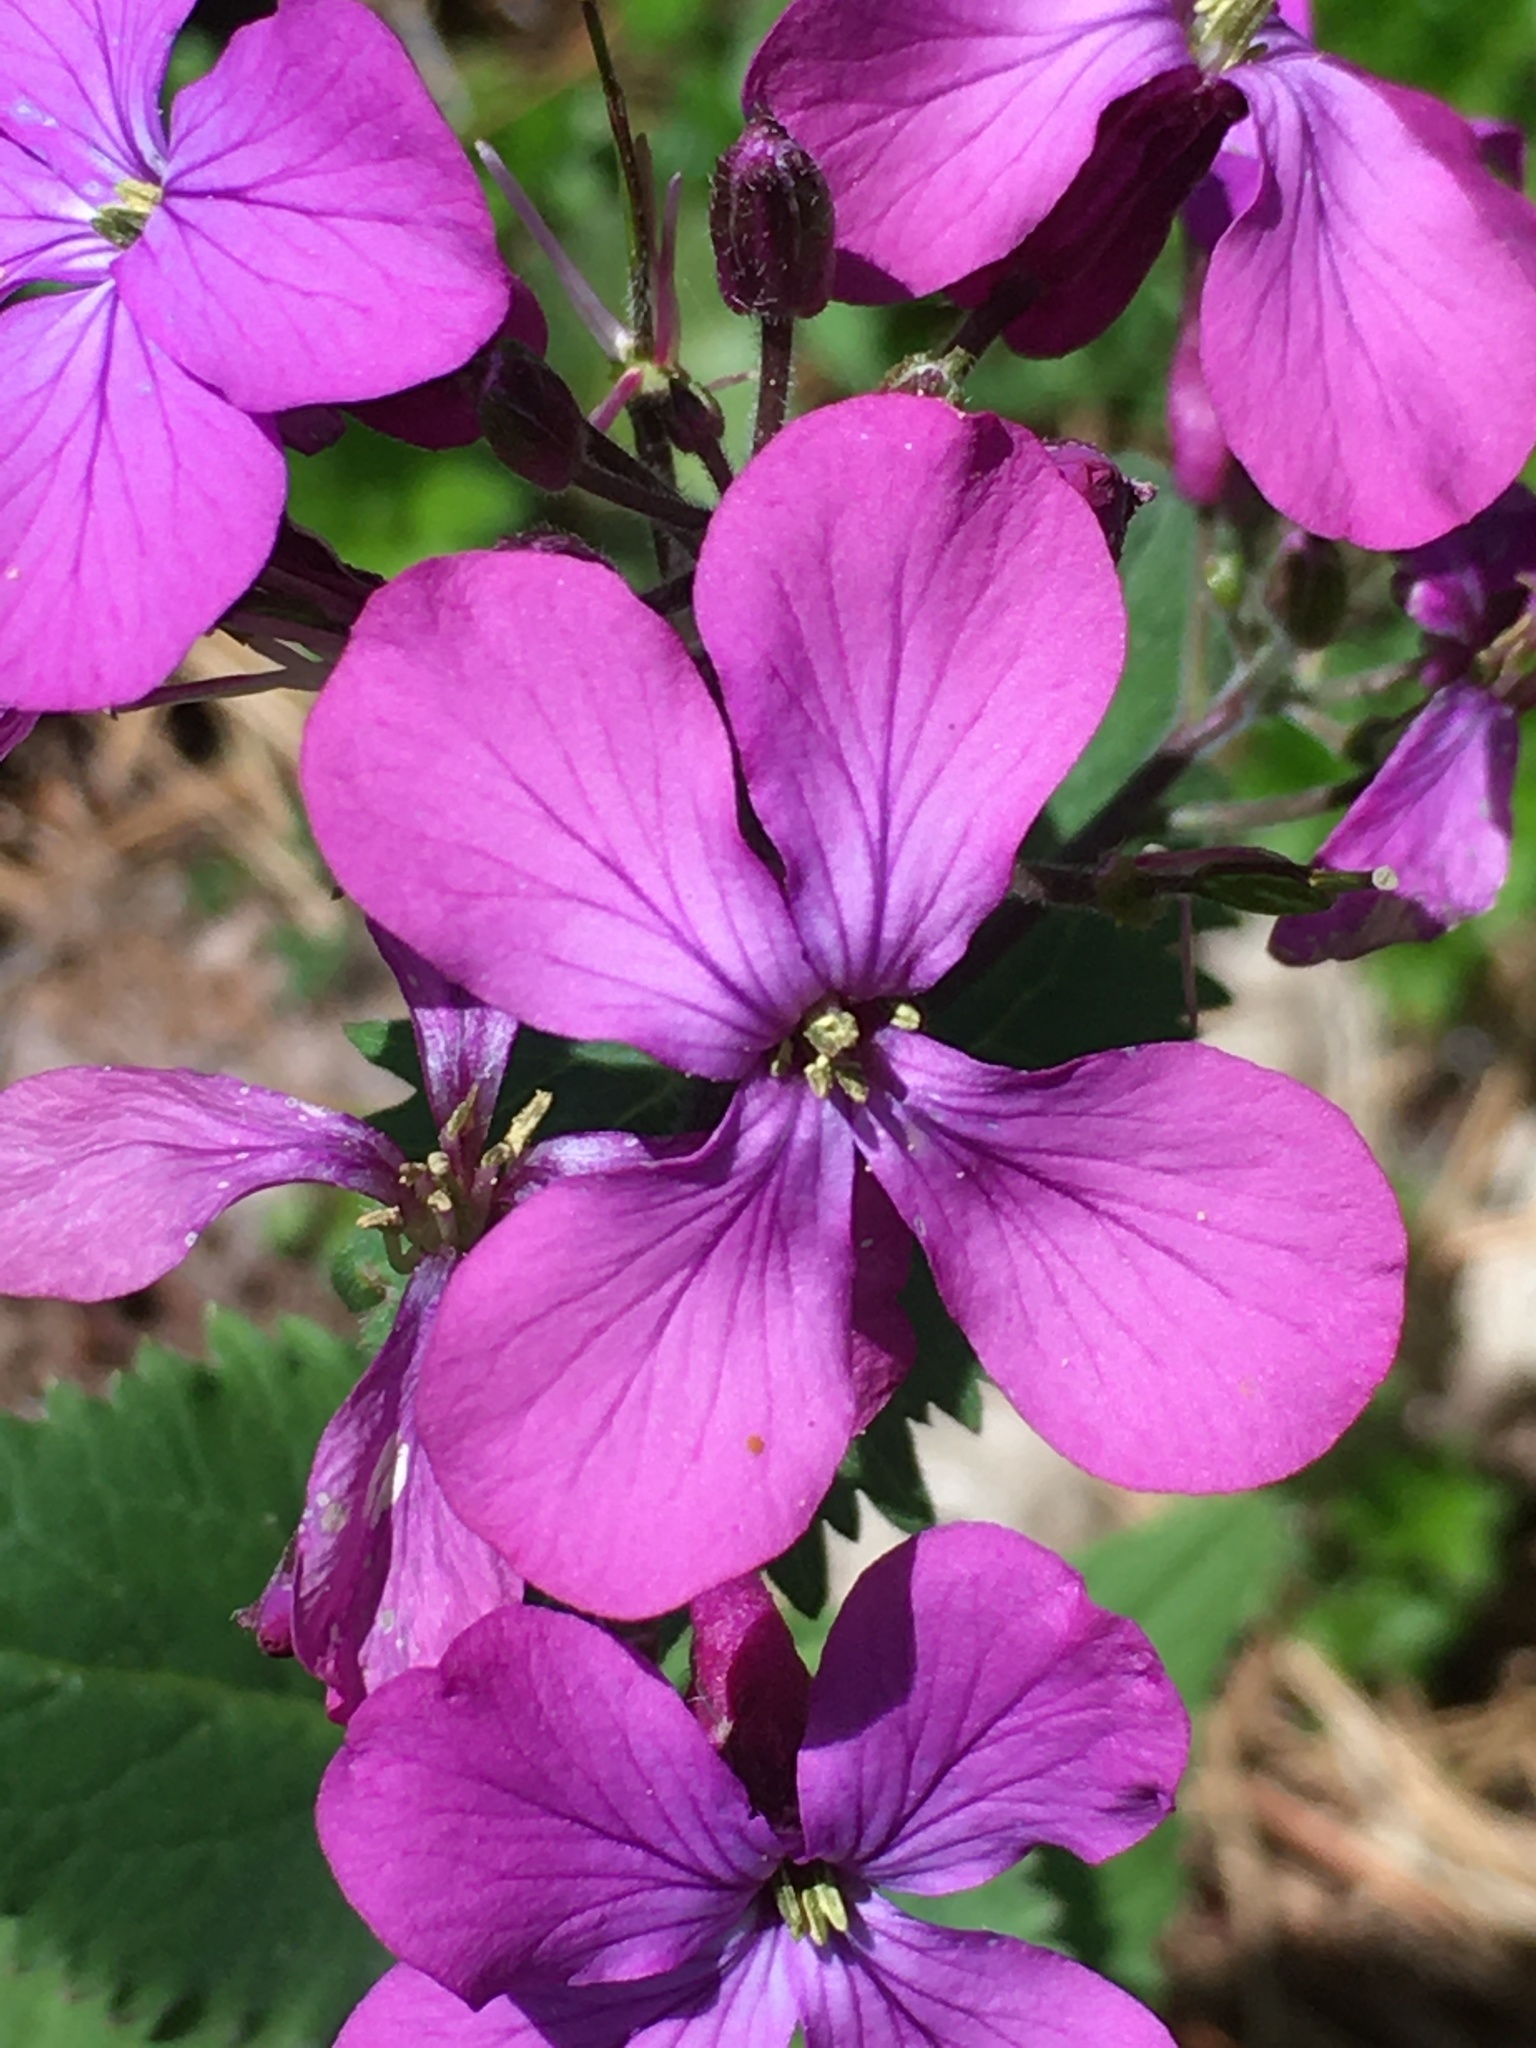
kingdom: Plantae
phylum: Tracheophyta
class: Magnoliopsida
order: Brassicales
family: Brassicaceae
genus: Lunaria
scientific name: Lunaria annua
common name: Honesty
